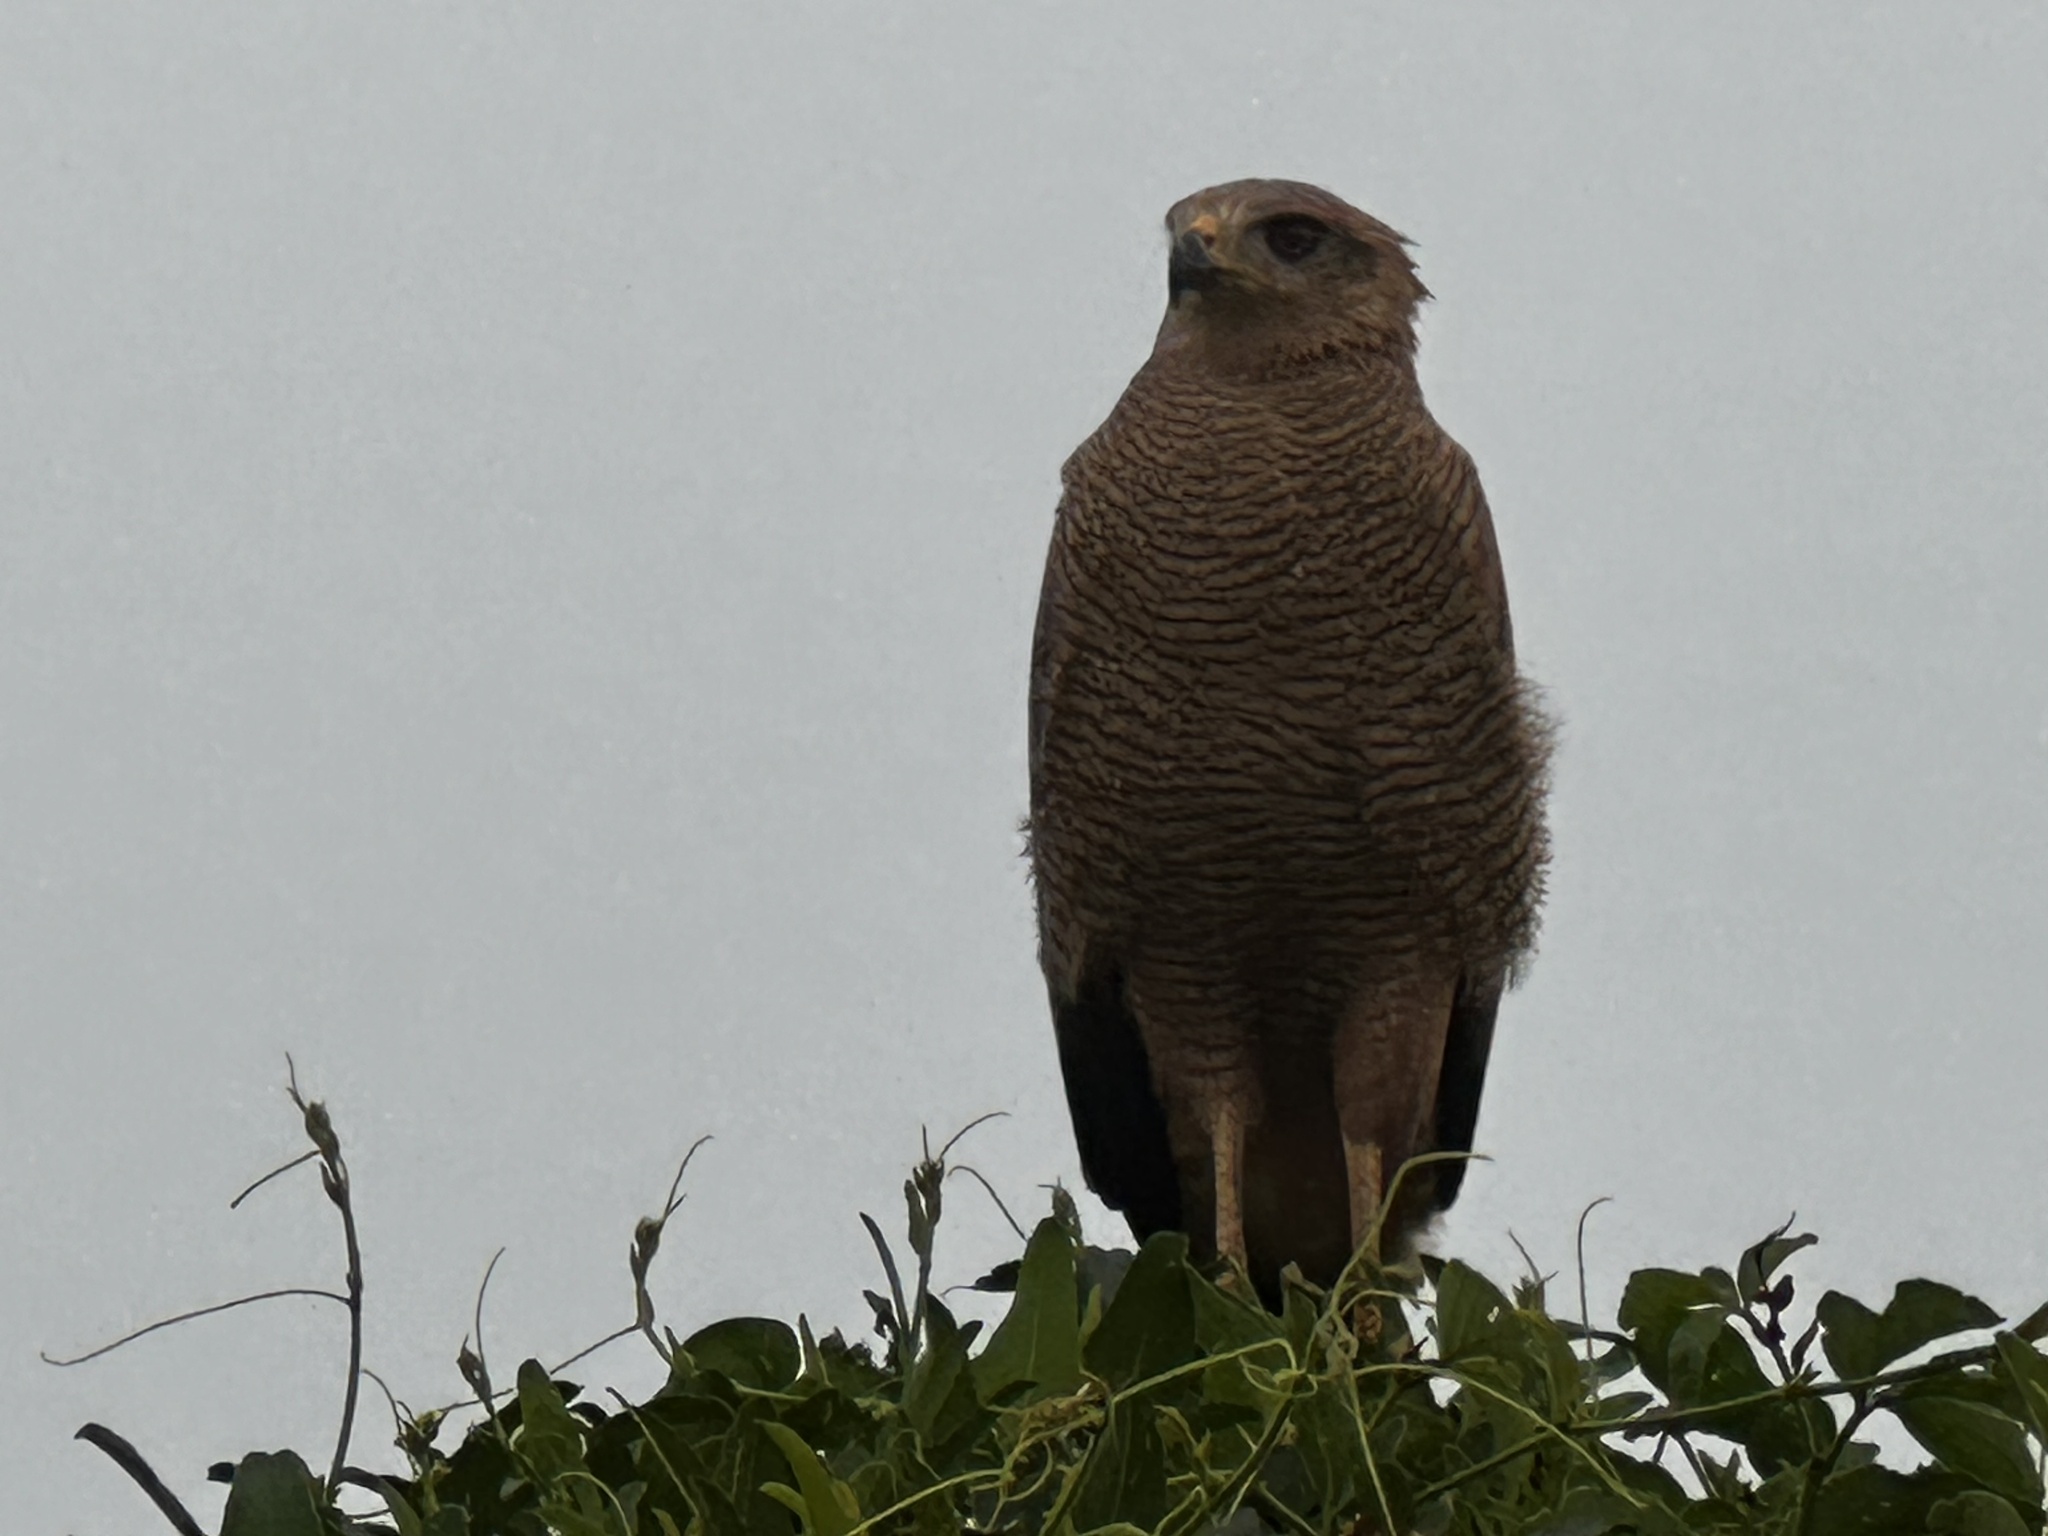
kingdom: Animalia
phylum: Chordata
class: Aves
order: Accipitriformes
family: Accipitridae
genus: Buteogallus
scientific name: Buteogallus meridionalis
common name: Savanna hawk
